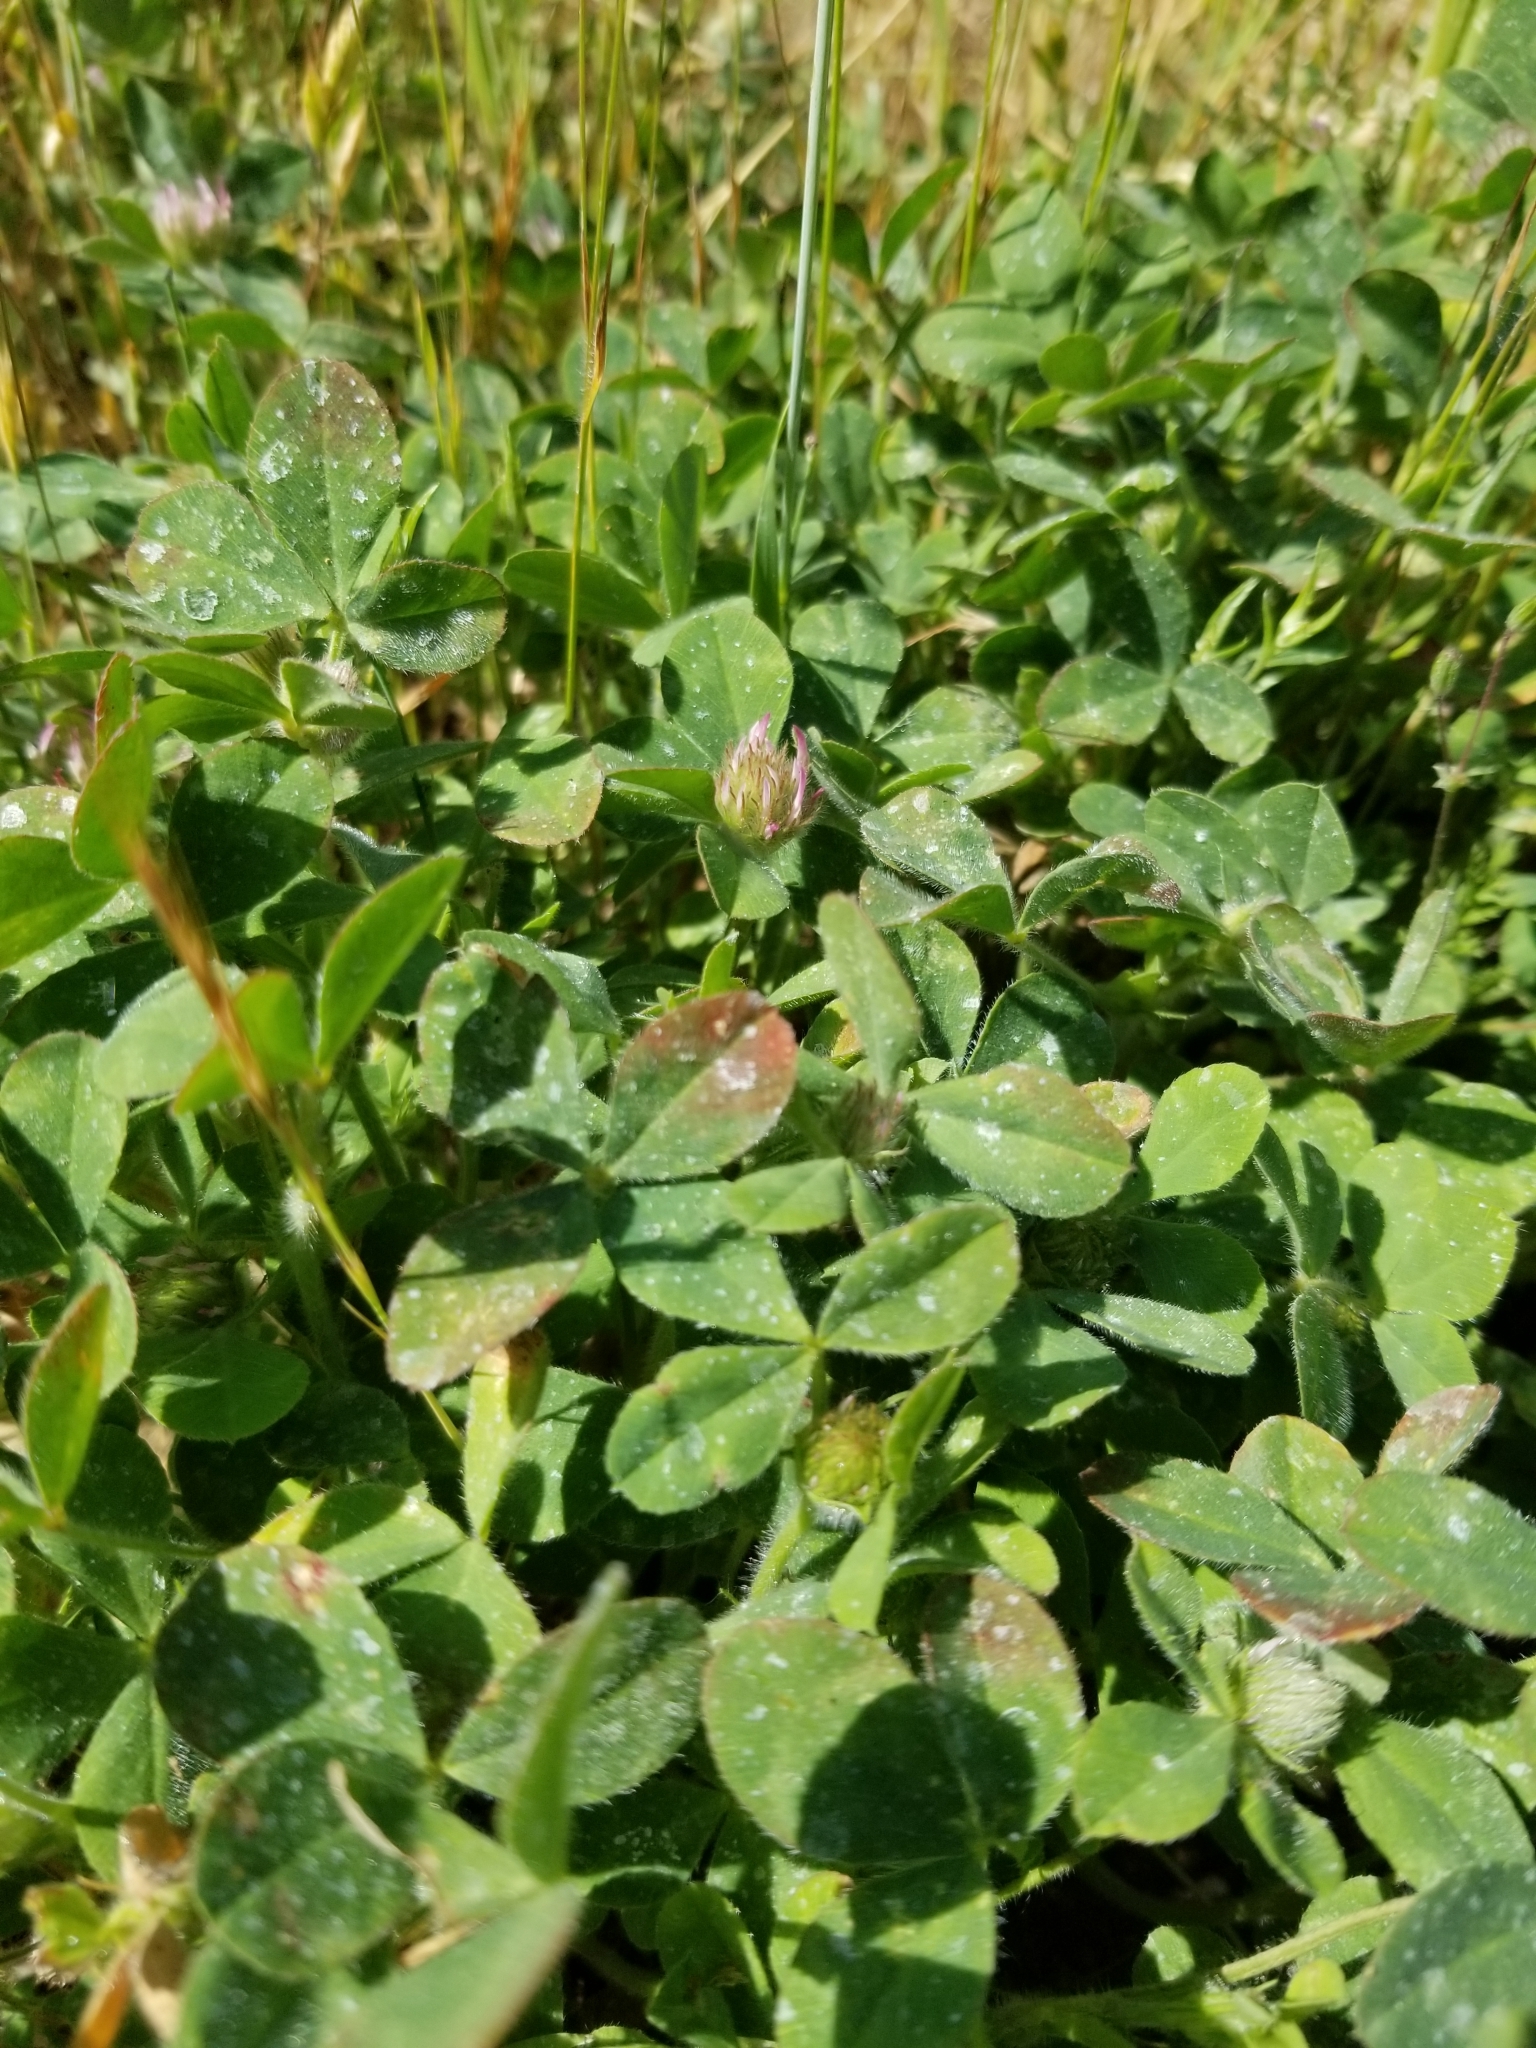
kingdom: Plantae
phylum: Tracheophyta
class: Magnoliopsida
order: Fabales
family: Fabaceae
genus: Trifolium
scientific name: Trifolium hirtum
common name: Rose clover
